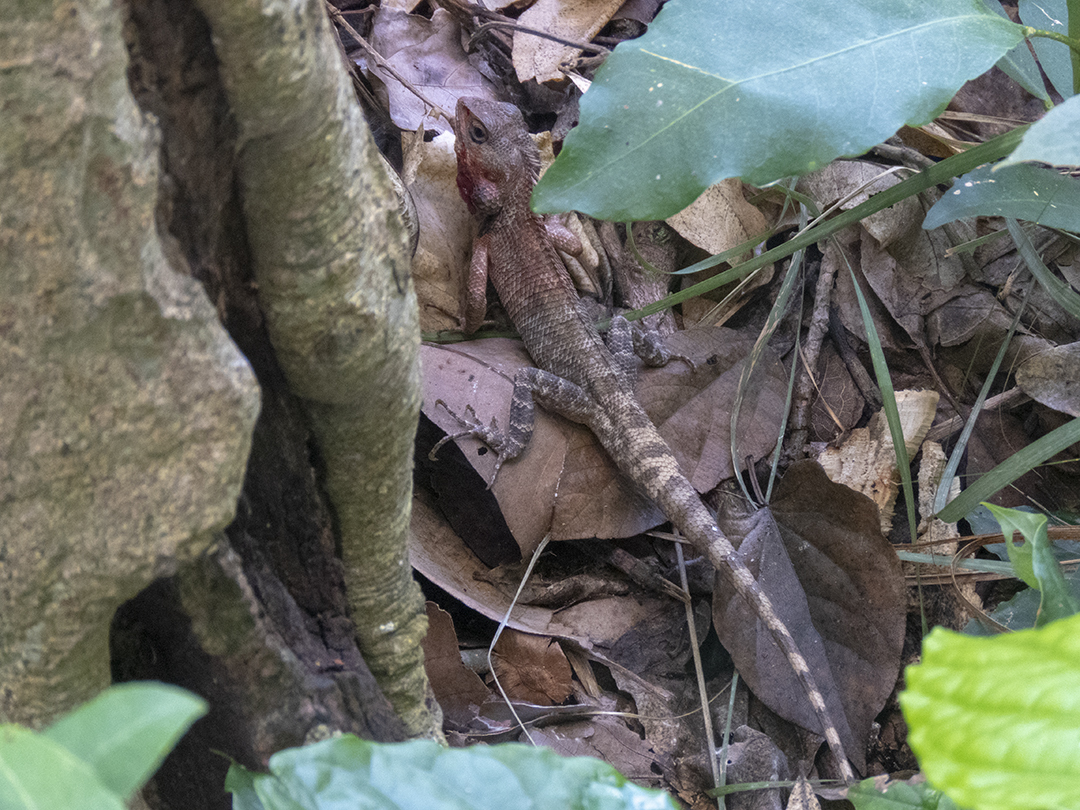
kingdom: Animalia
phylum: Chordata
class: Squamata
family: Agamidae
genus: Calotes
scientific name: Calotes versicolor
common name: Oriental garden lizard
